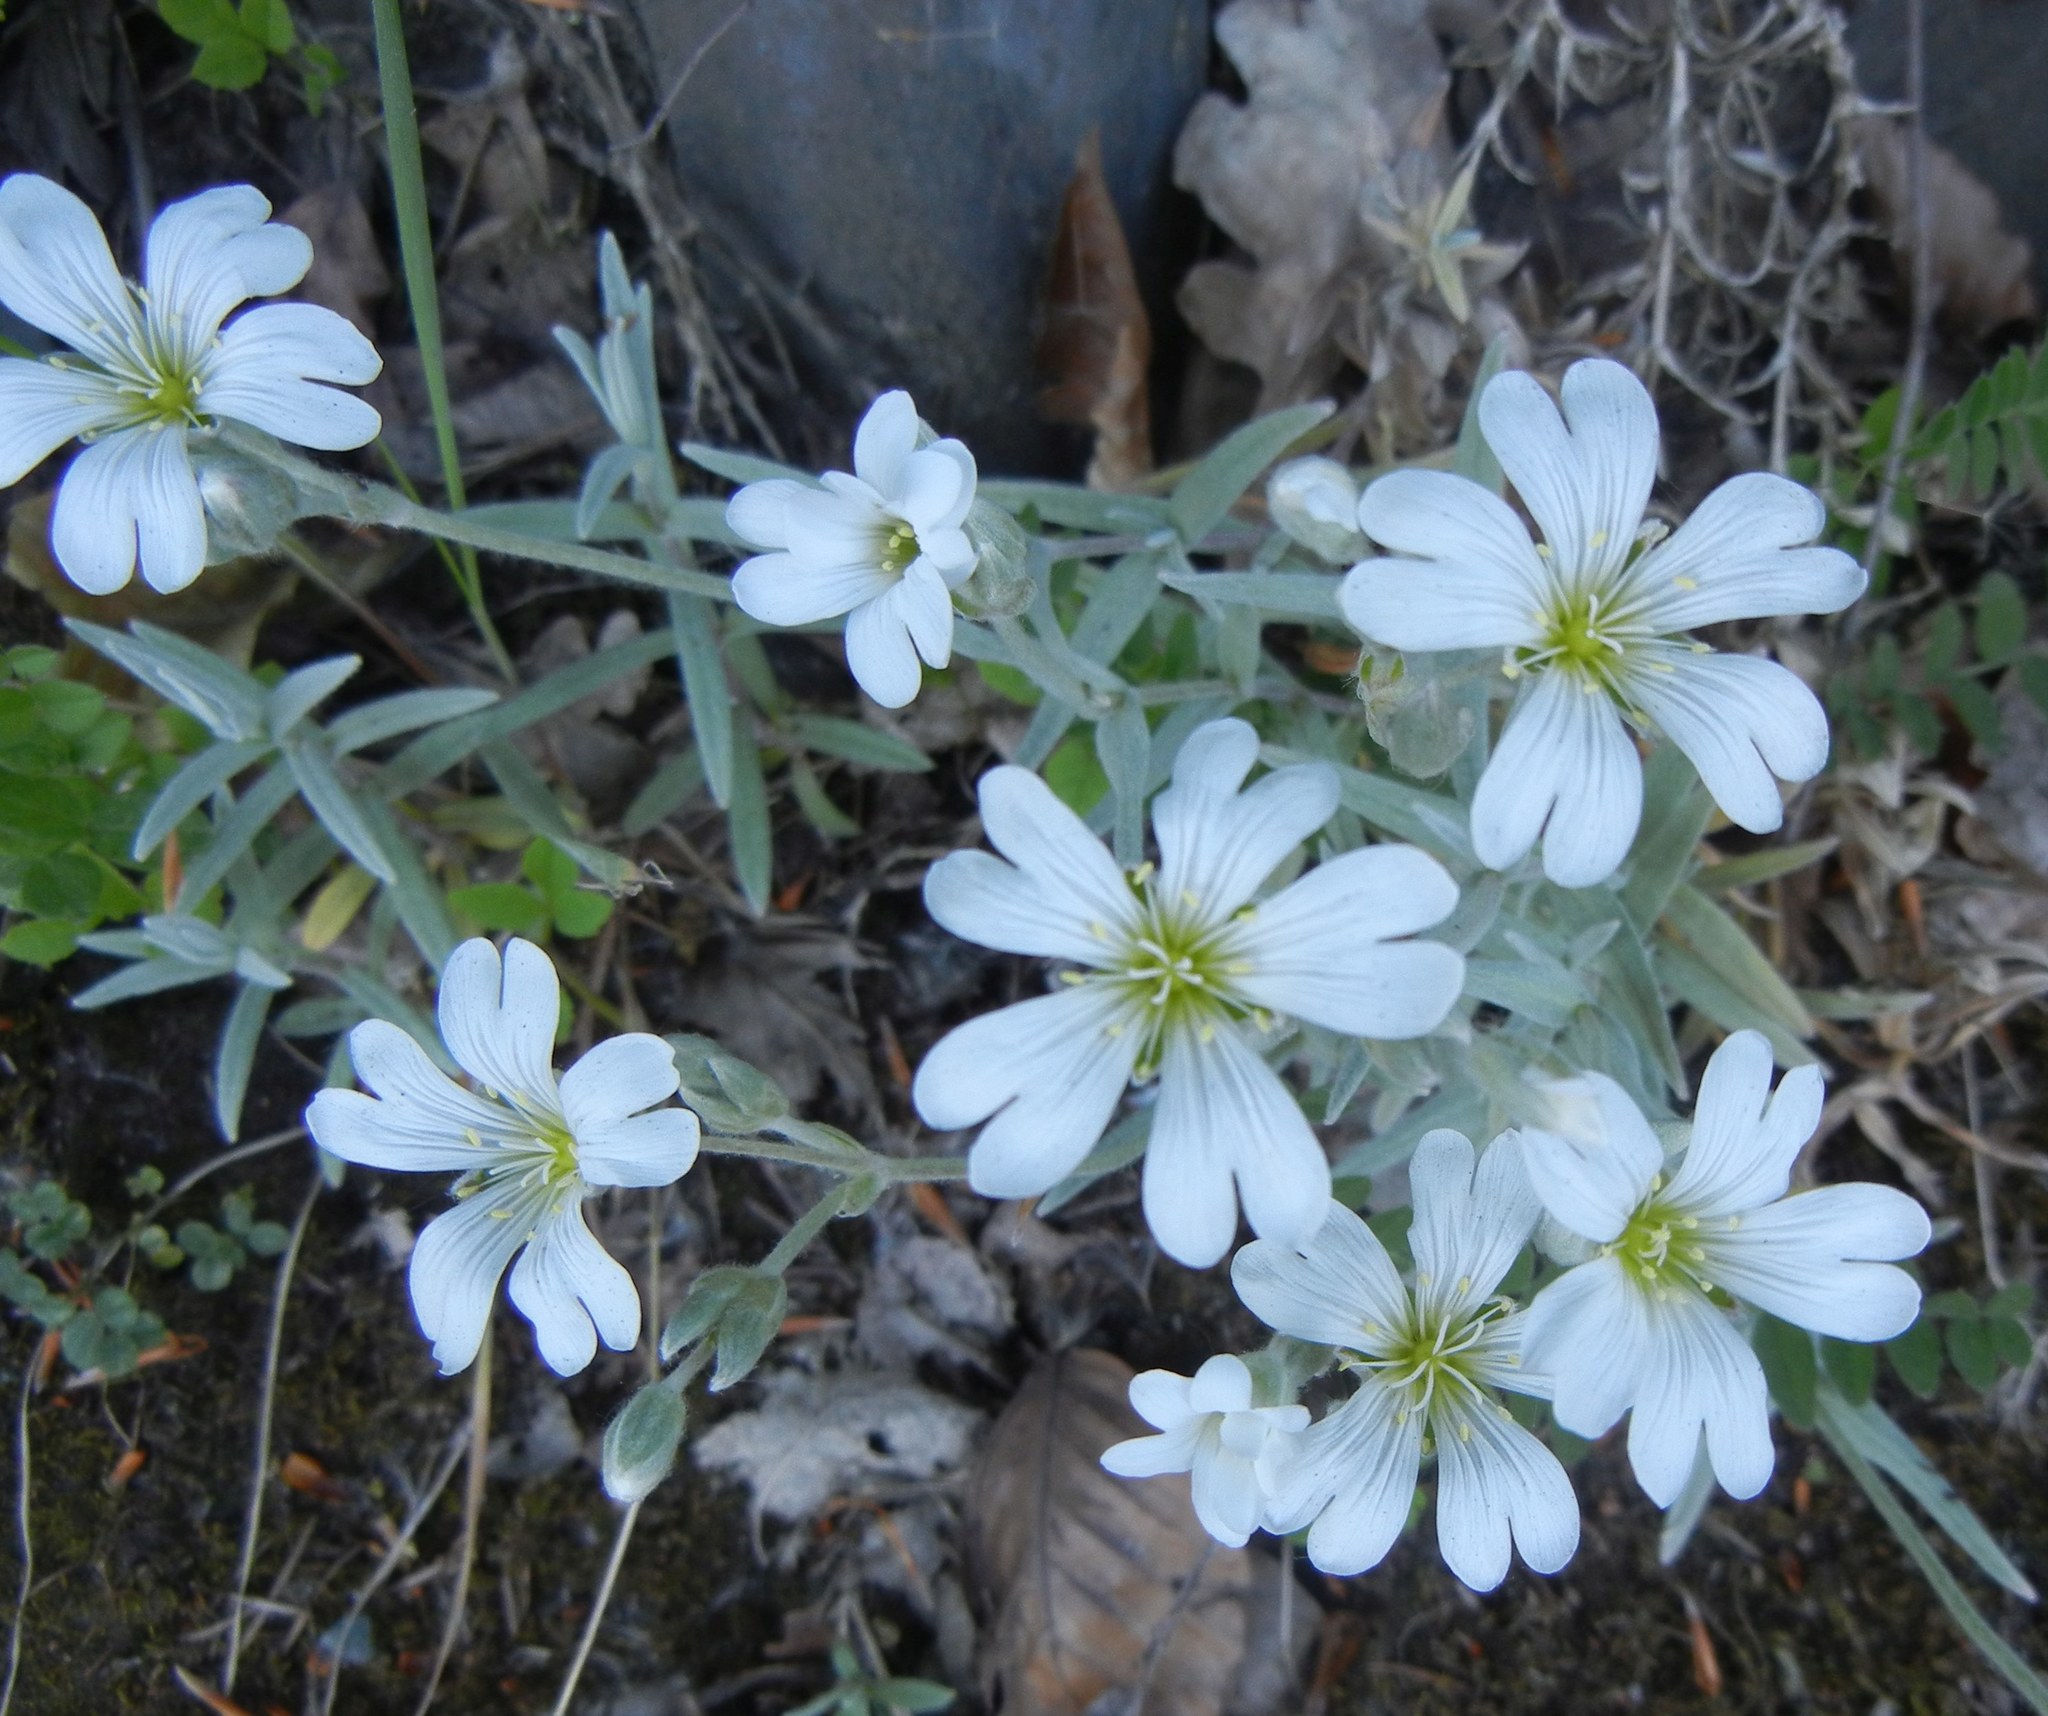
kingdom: Plantae
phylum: Tracheophyta
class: Magnoliopsida
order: Caryophyllales
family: Caryophyllaceae
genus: Cerastium
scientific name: Cerastium tomentosum
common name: Snow-in-summer
